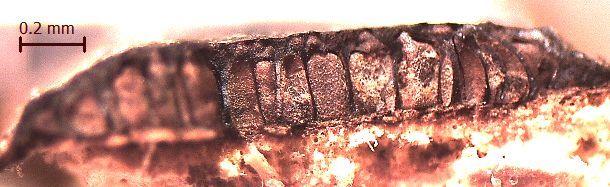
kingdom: Fungi
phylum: Ascomycota
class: Sordariomycetes
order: Xylariales
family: Graphostromataceae
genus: Biscogniauxia
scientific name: Biscogniauxia capnodes
